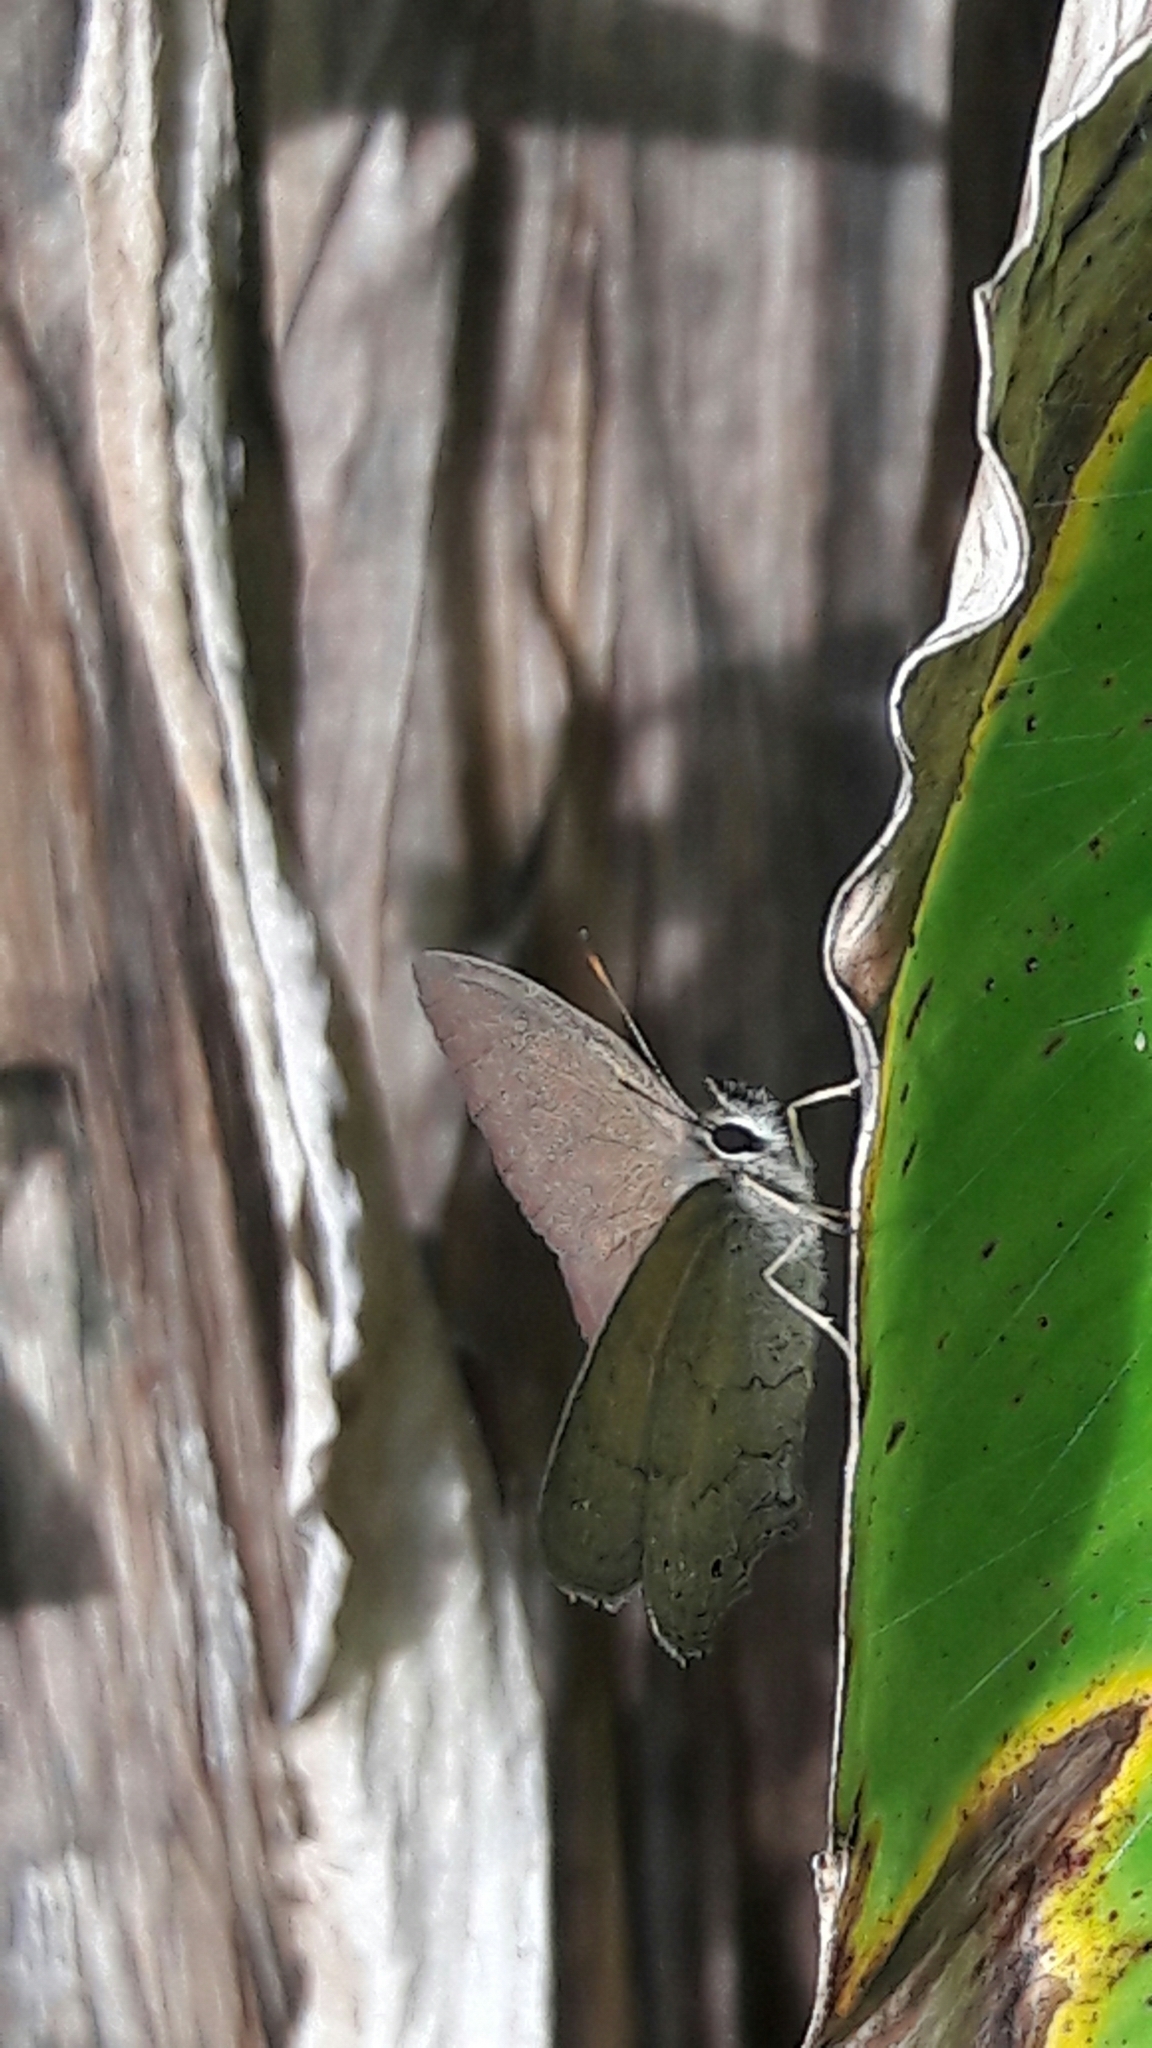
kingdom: Animalia
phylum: Arthropoda
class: Insecta
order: Lepidoptera
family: Nymphalidae
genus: Euptychia
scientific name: Euptychia Cissia eous
